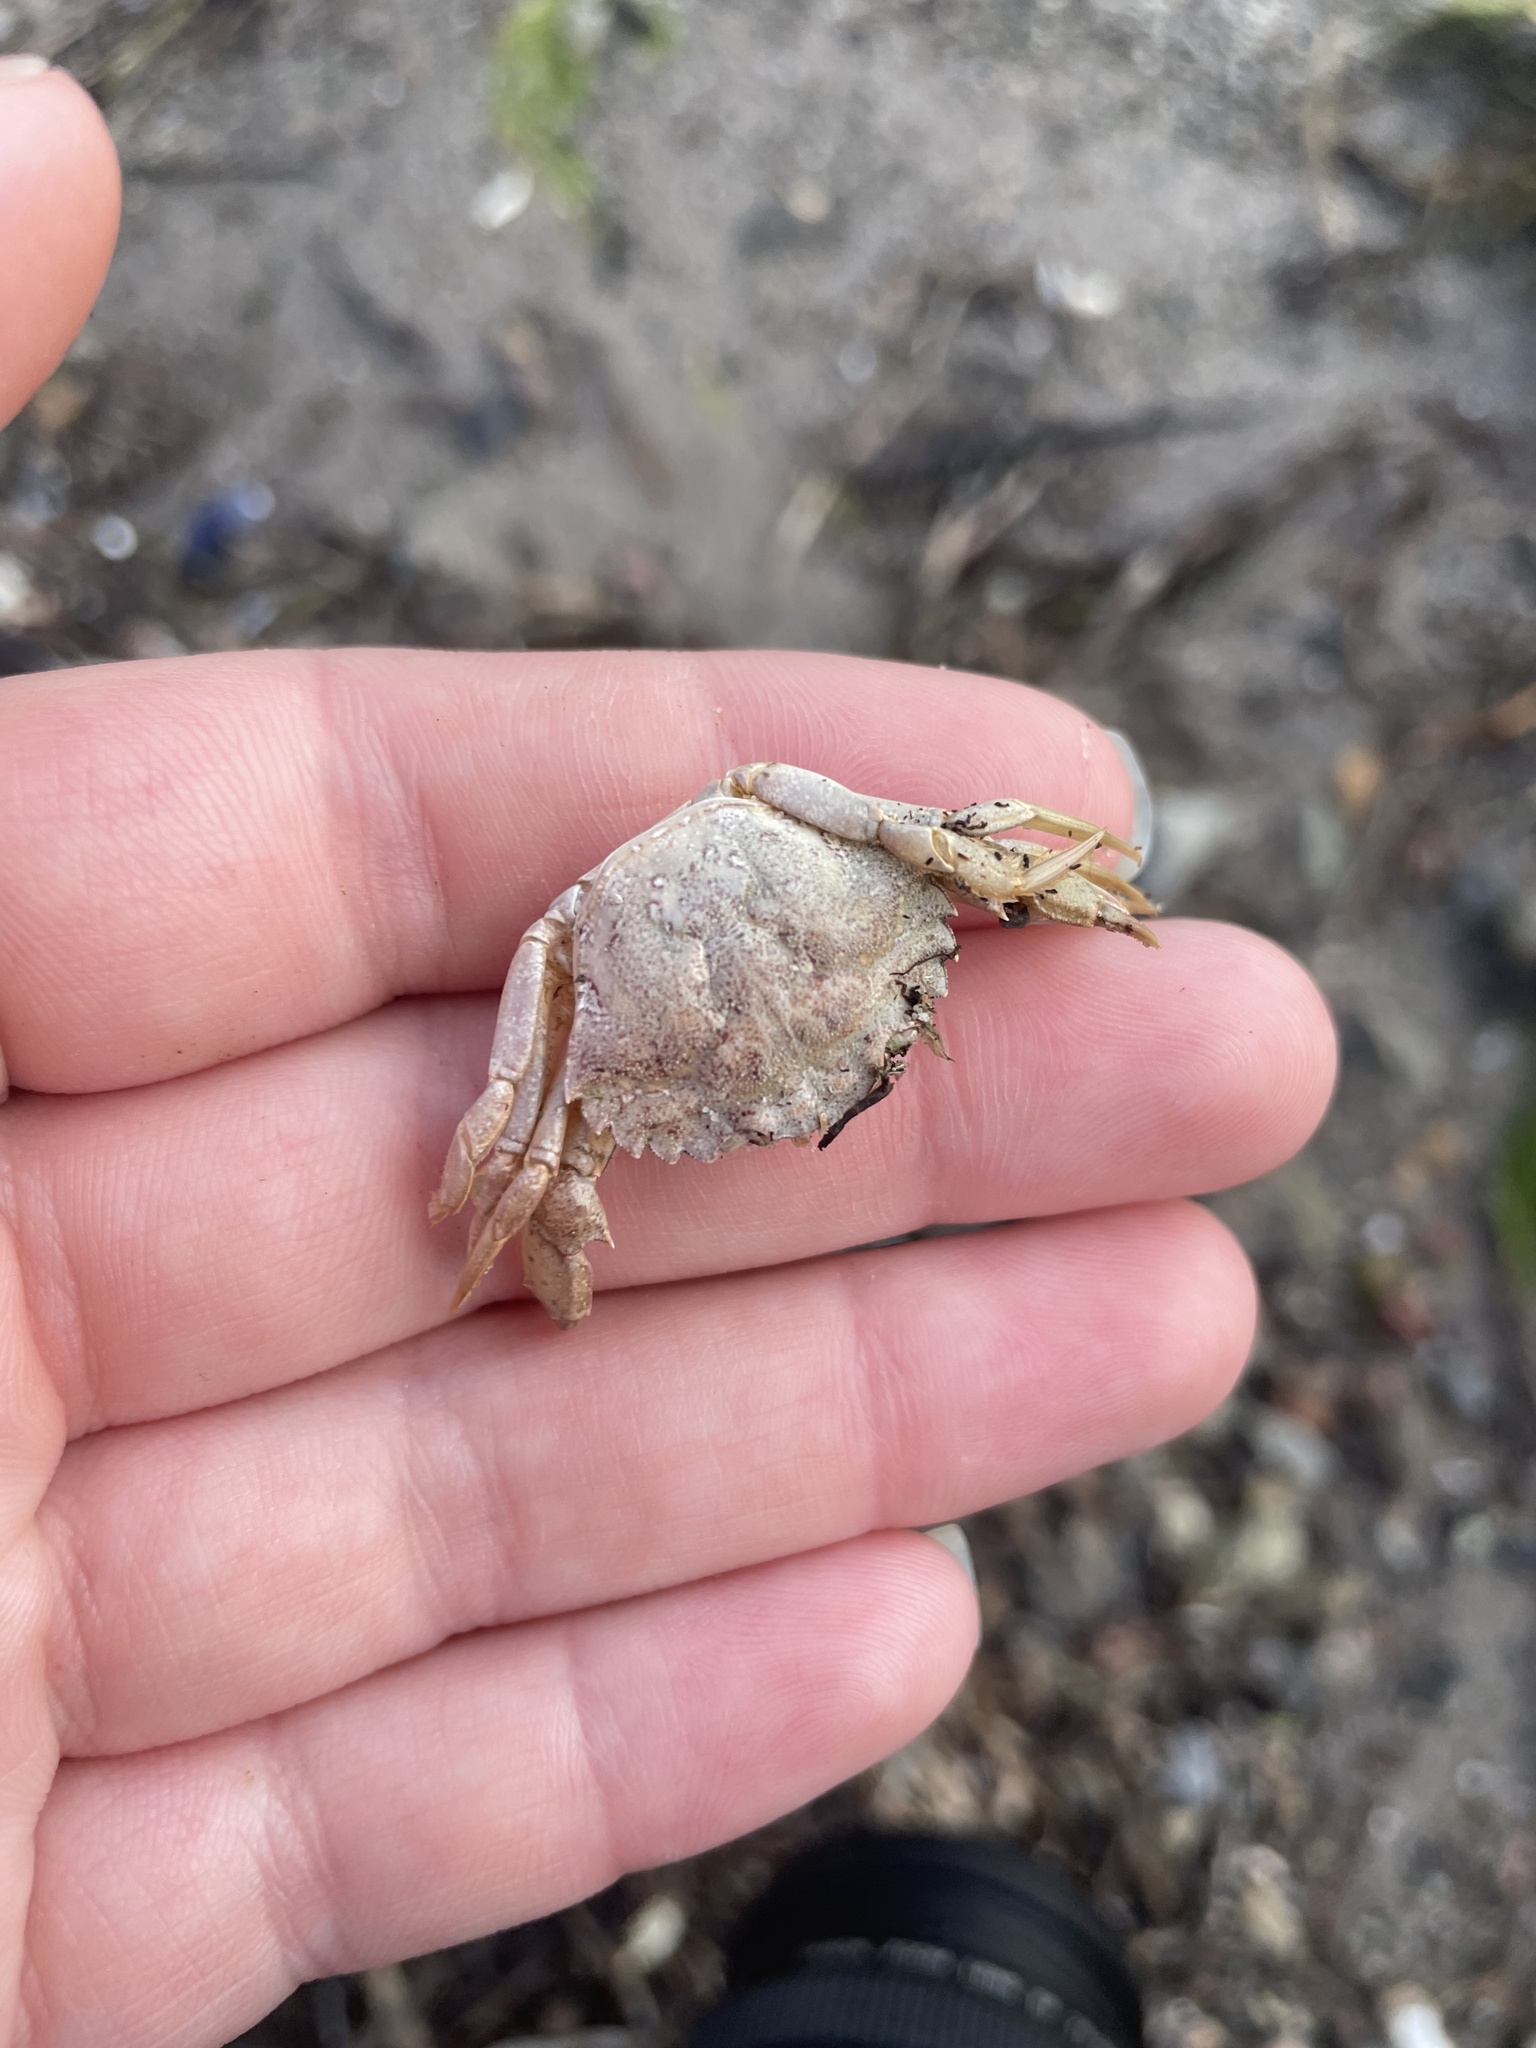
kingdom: Animalia
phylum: Arthropoda
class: Malacostraca
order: Decapoda
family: Carcinidae
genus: Carcinus
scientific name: Carcinus maenas
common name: European green crab
